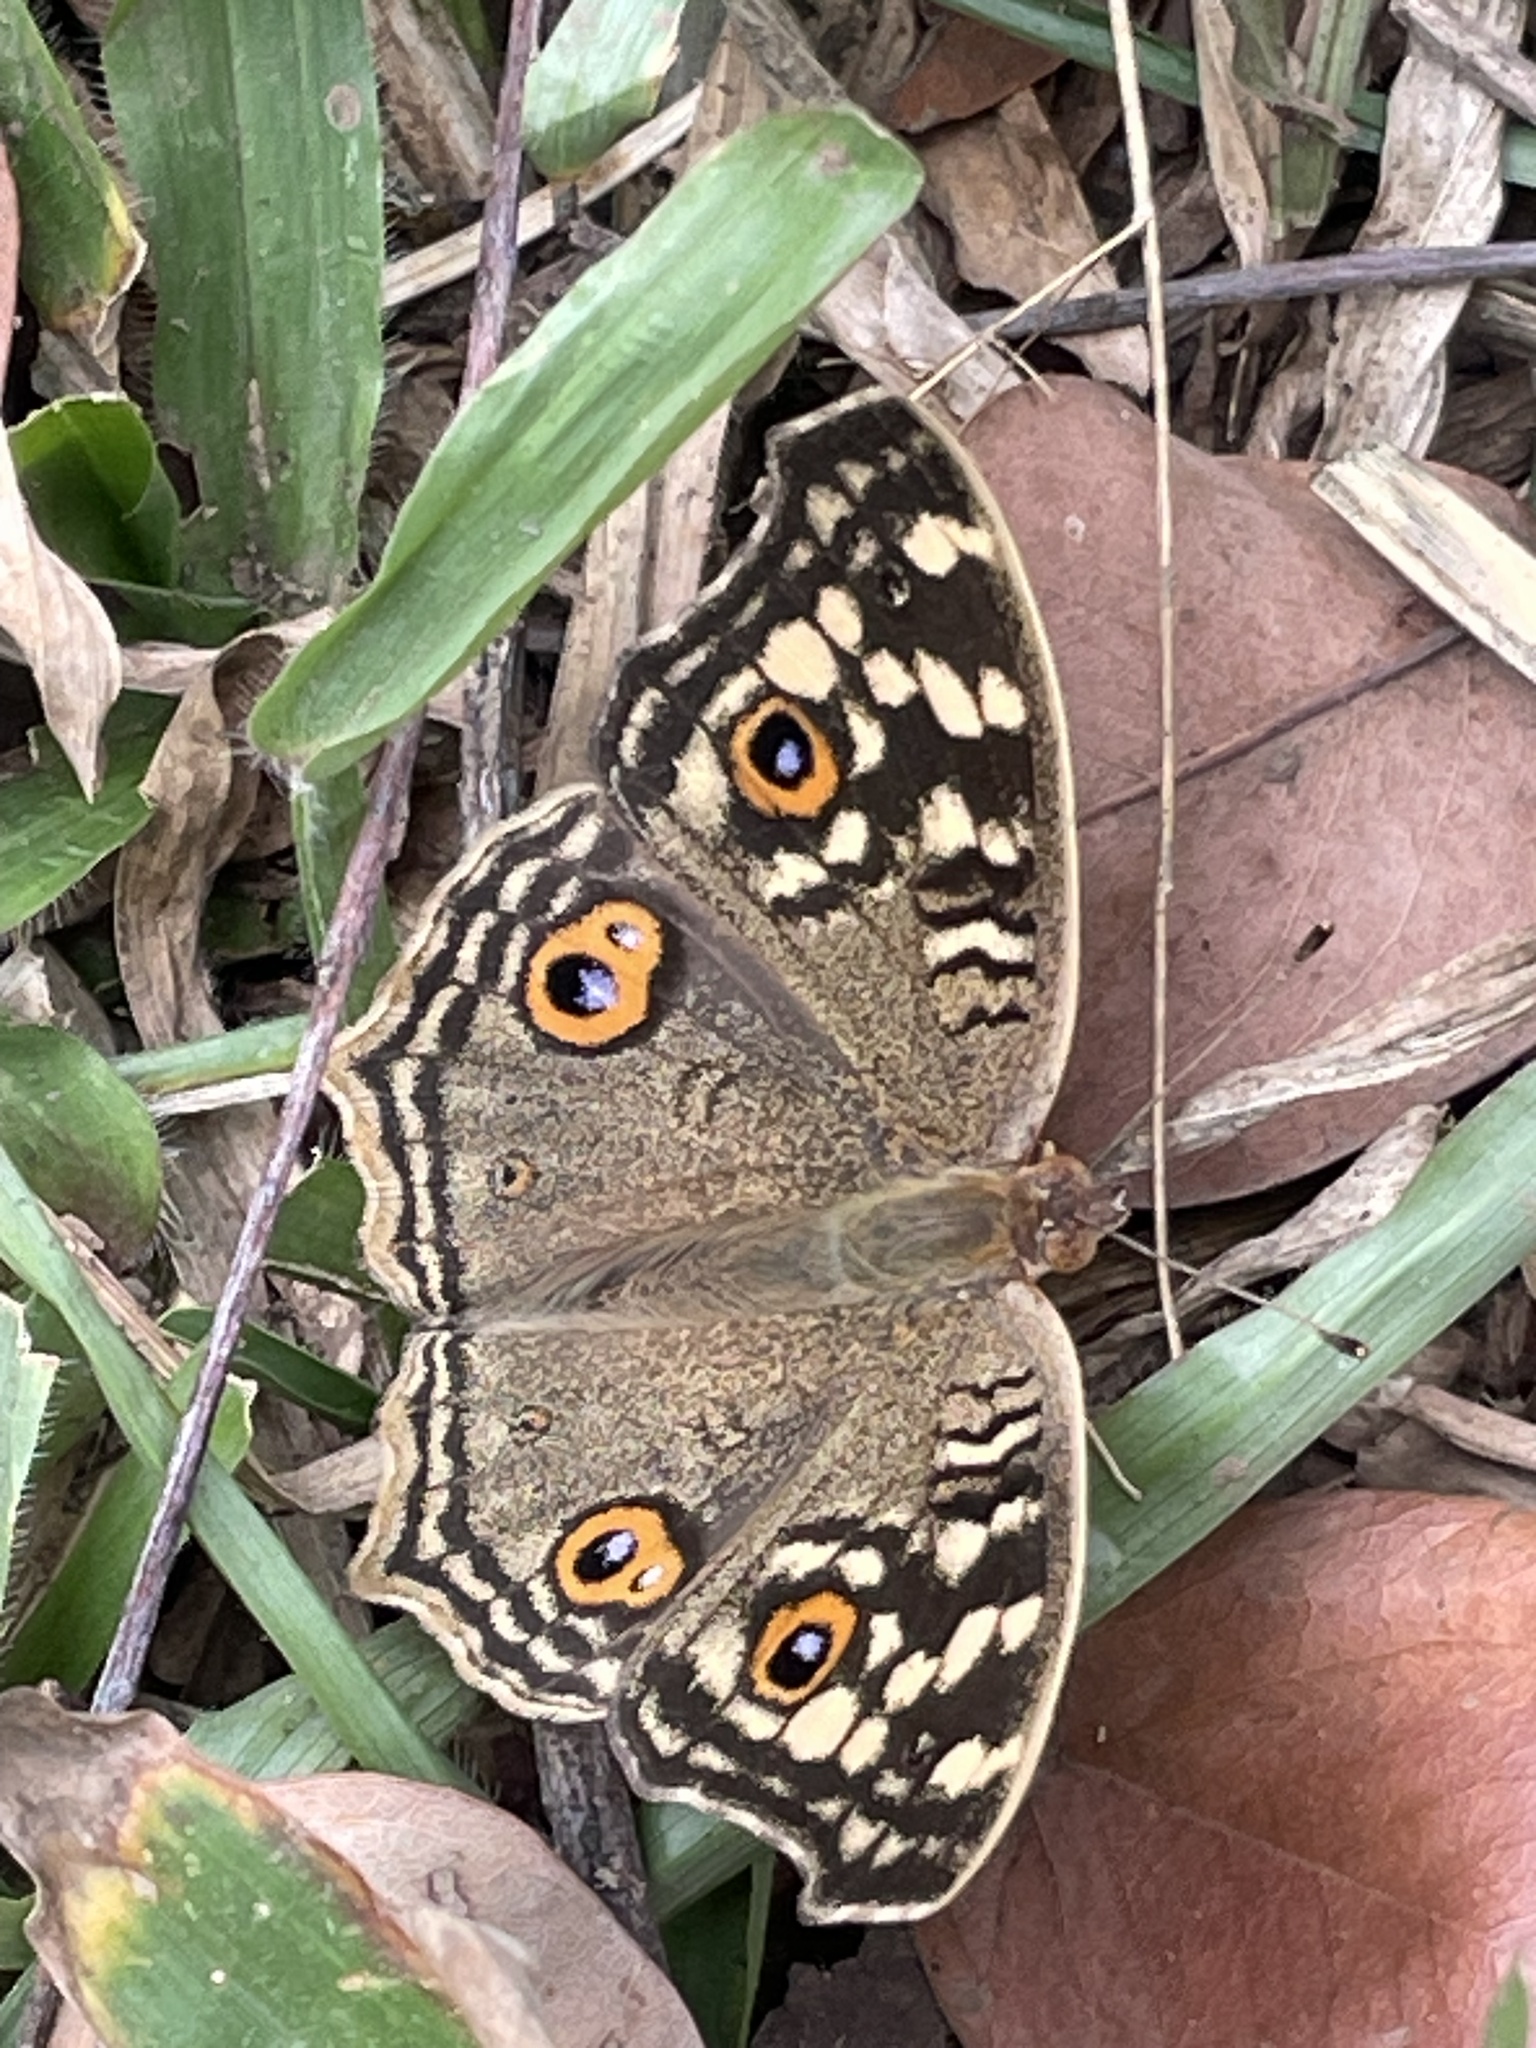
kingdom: Animalia
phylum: Arthropoda
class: Insecta
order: Lepidoptera
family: Nymphalidae
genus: Junonia
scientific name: Junonia lemonias
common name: Lemon pansy
